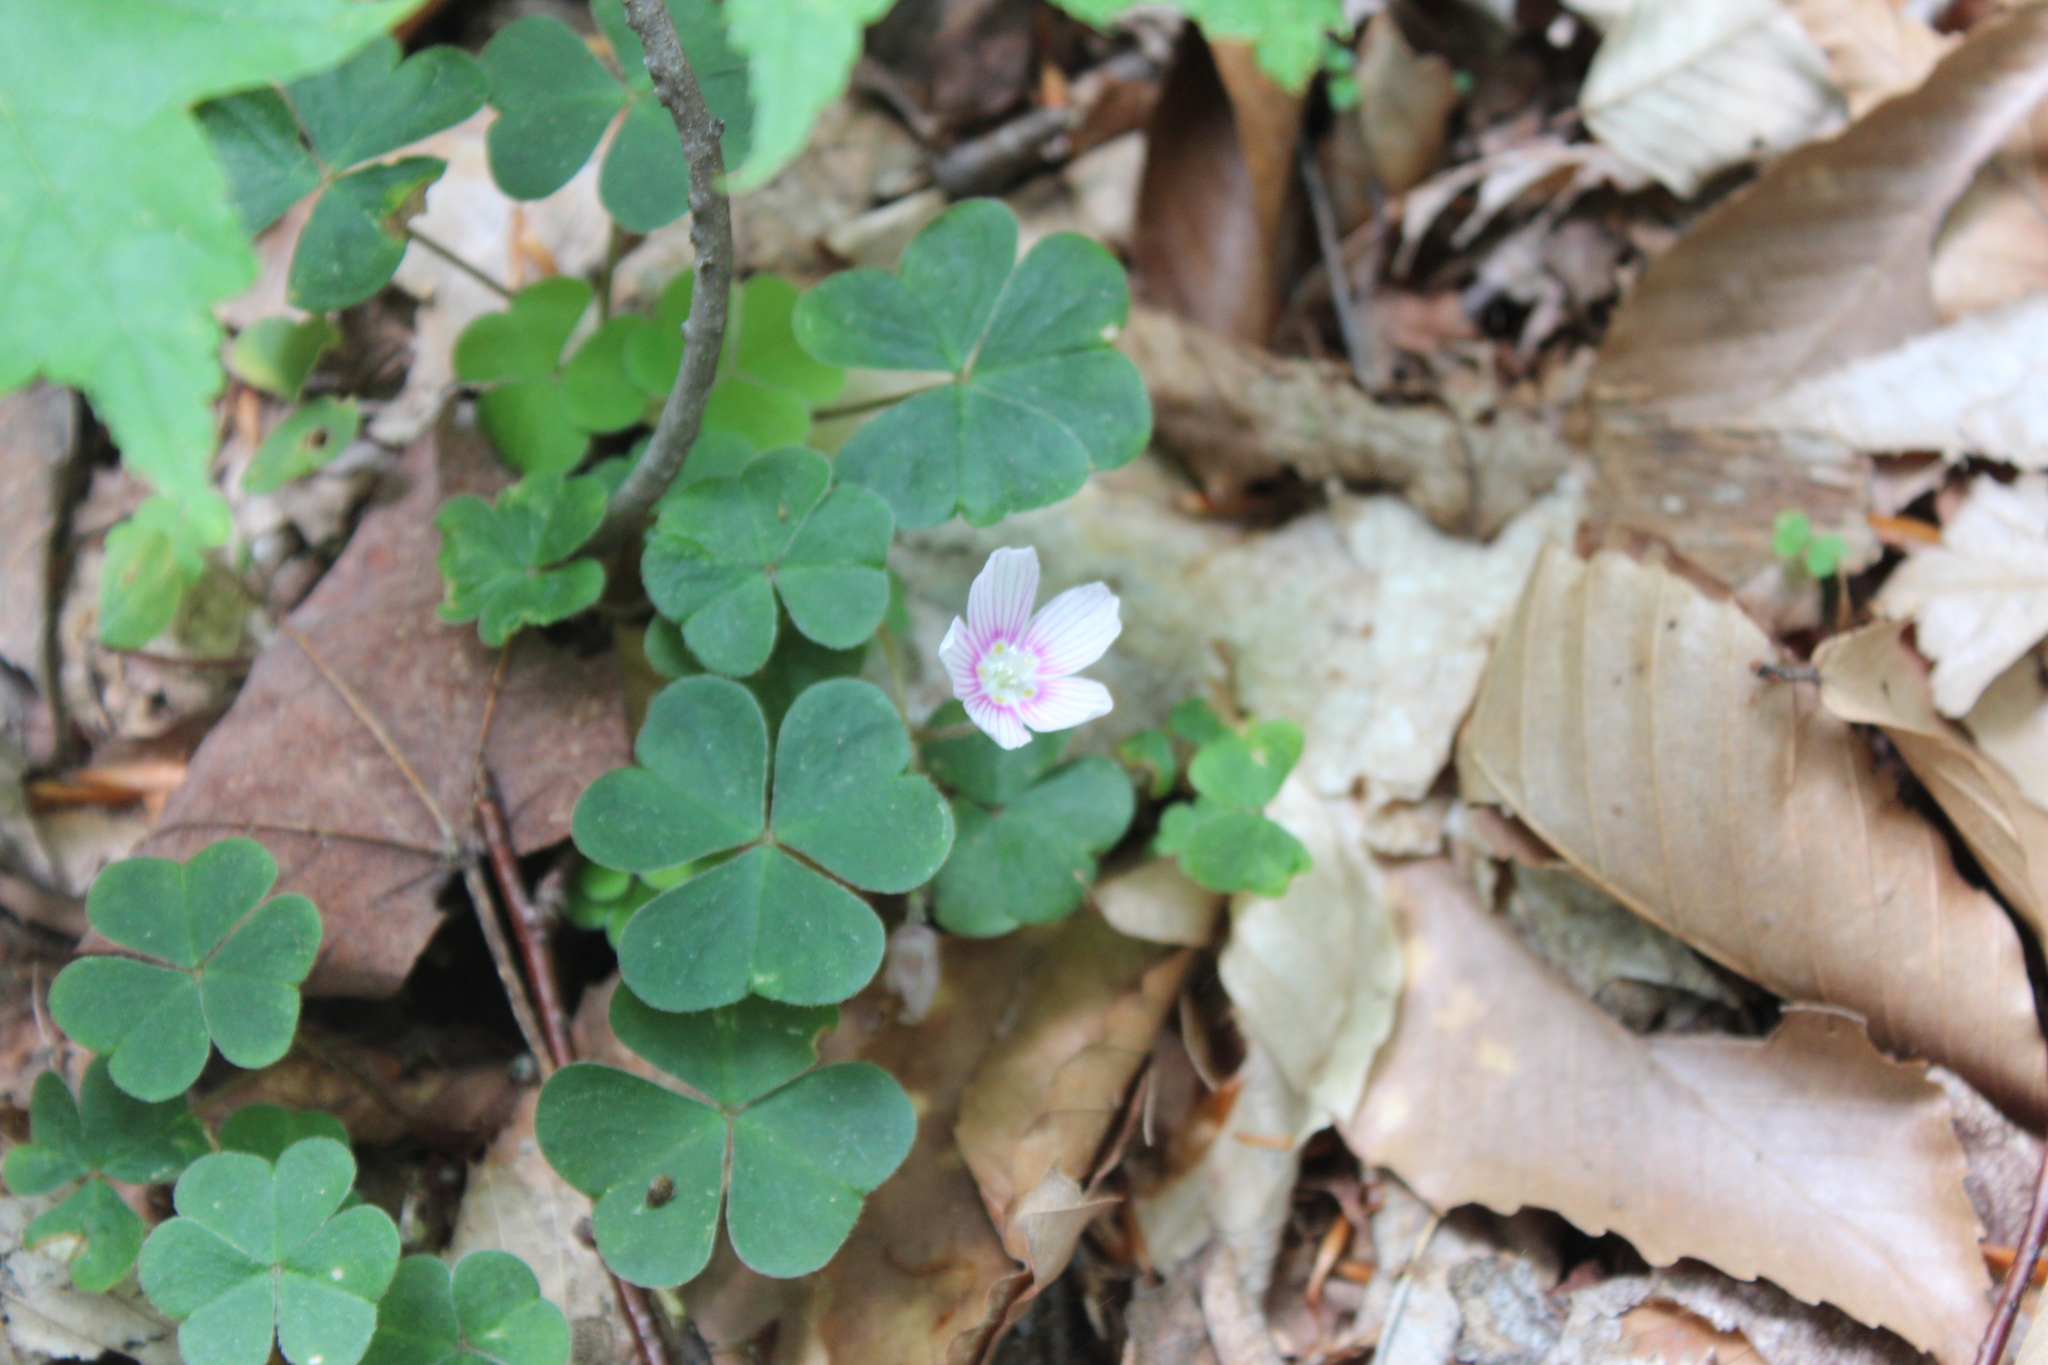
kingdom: Plantae
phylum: Tracheophyta
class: Magnoliopsida
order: Oxalidales
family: Oxalidaceae
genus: Oxalis
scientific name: Oxalis montana
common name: American wood-sorrel
